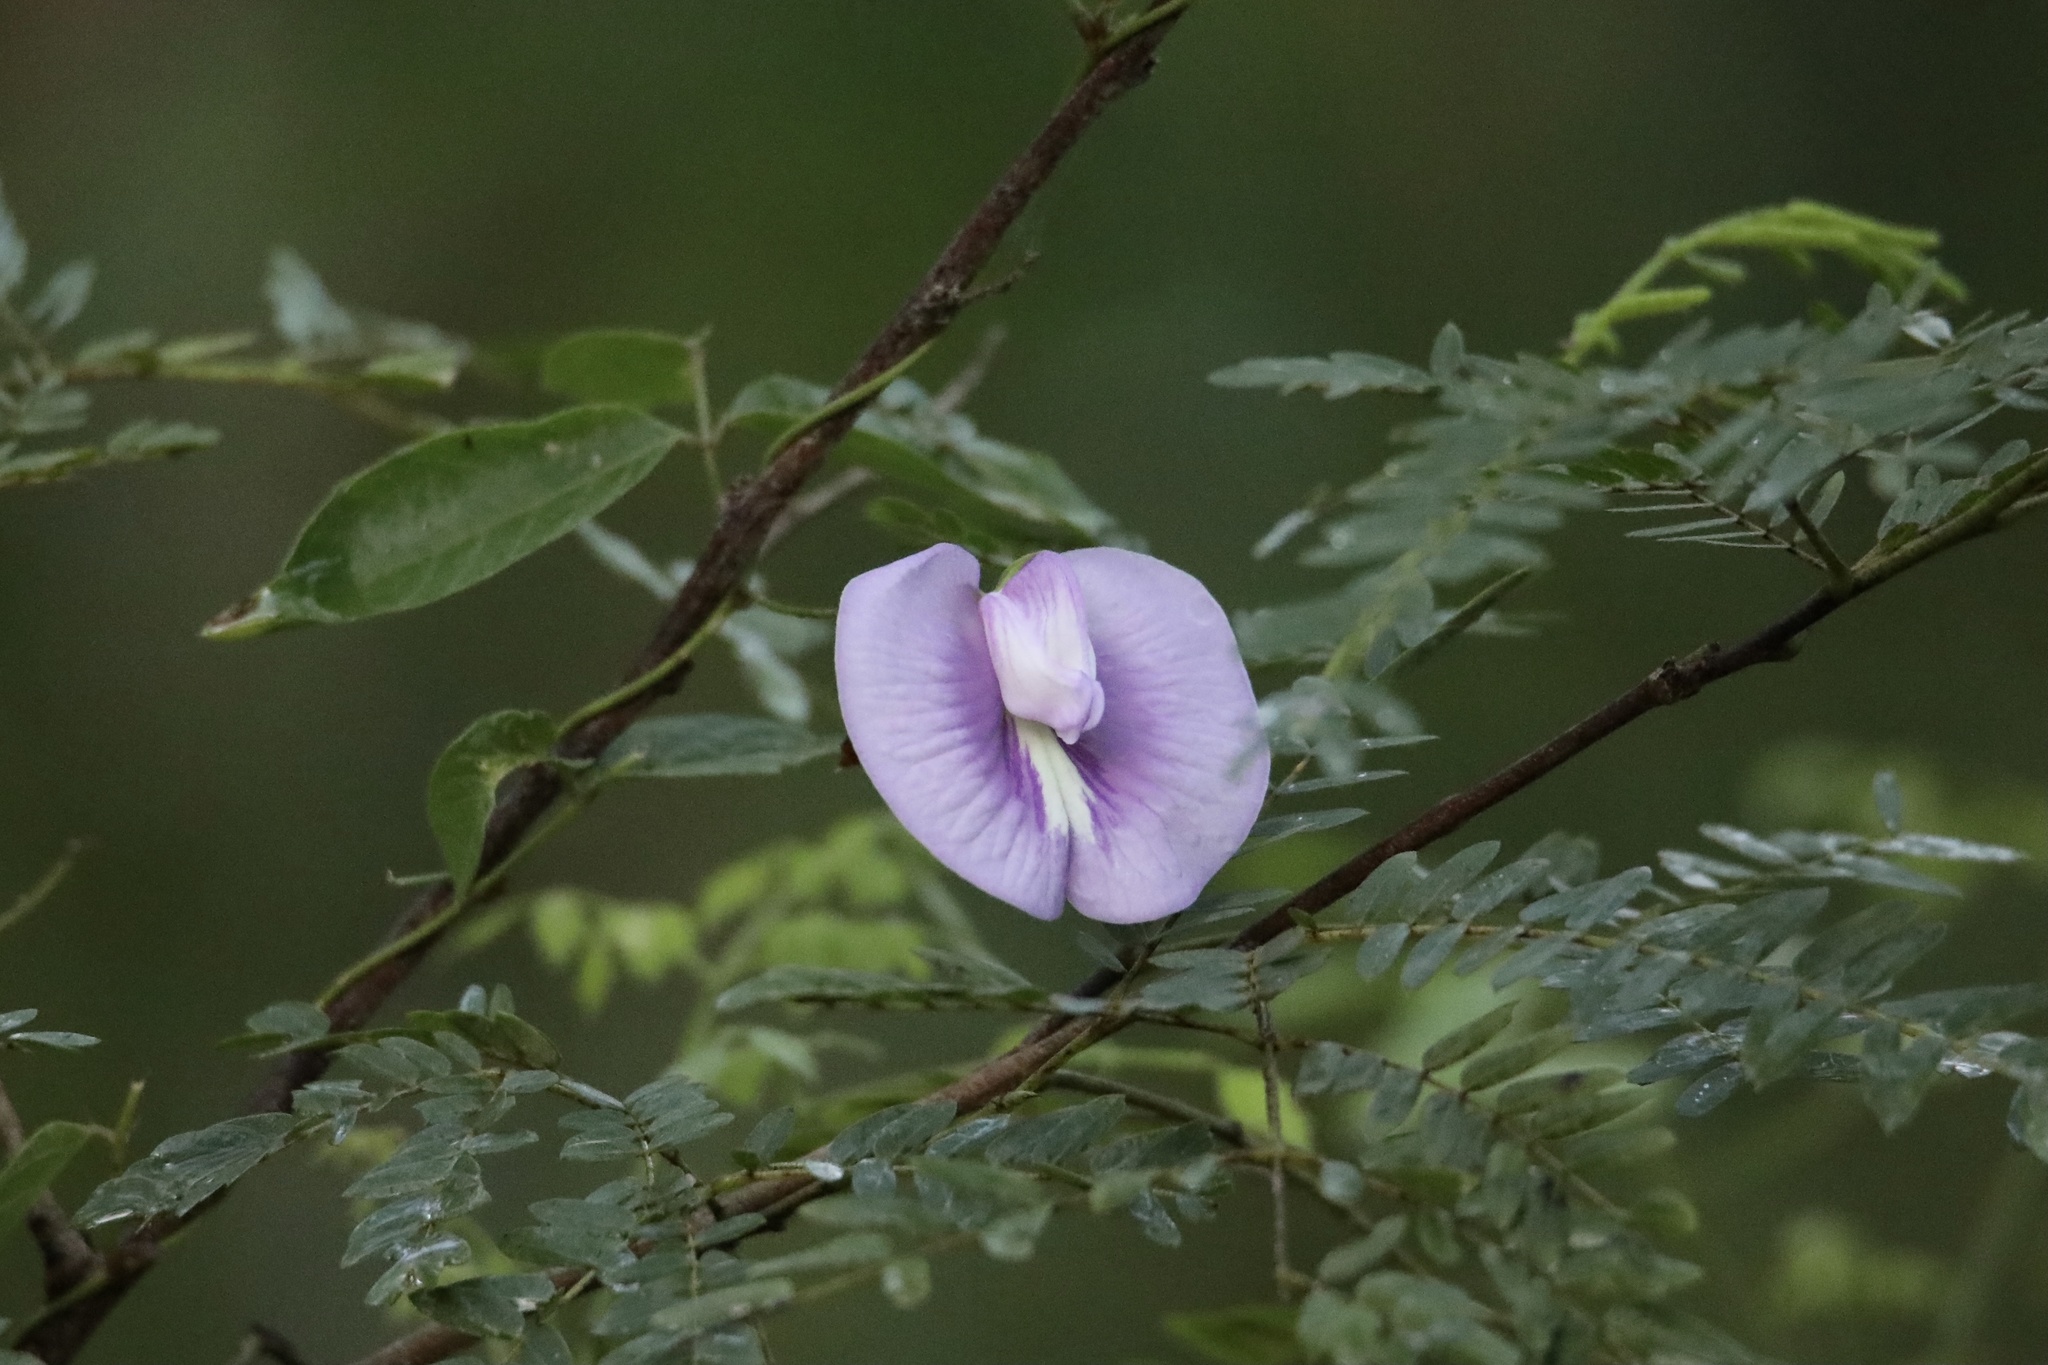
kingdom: Plantae
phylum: Tracheophyta
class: Magnoliopsida
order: Fabales
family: Fabaceae
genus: Centrosema
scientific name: Centrosema virginianum
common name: Butterfly-pea
